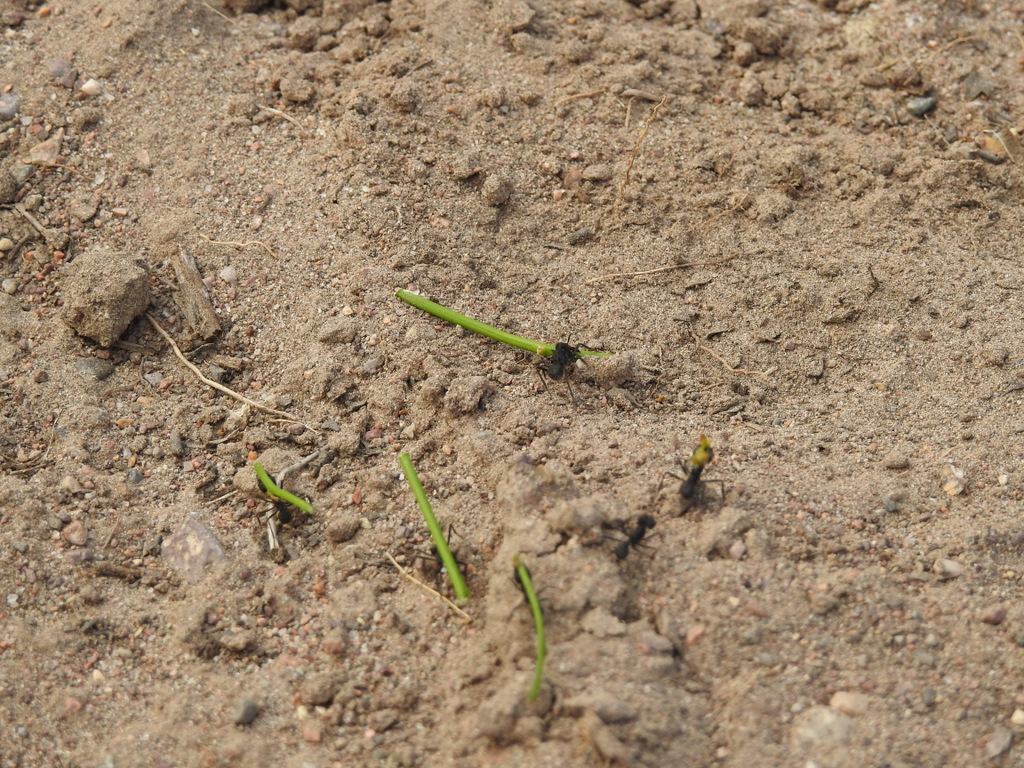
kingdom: Animalia
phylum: Arthropoda
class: Insecta
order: Hymenoptera
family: Formicidae
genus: Acromyrmex
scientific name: Acromyrmex lobicornis
